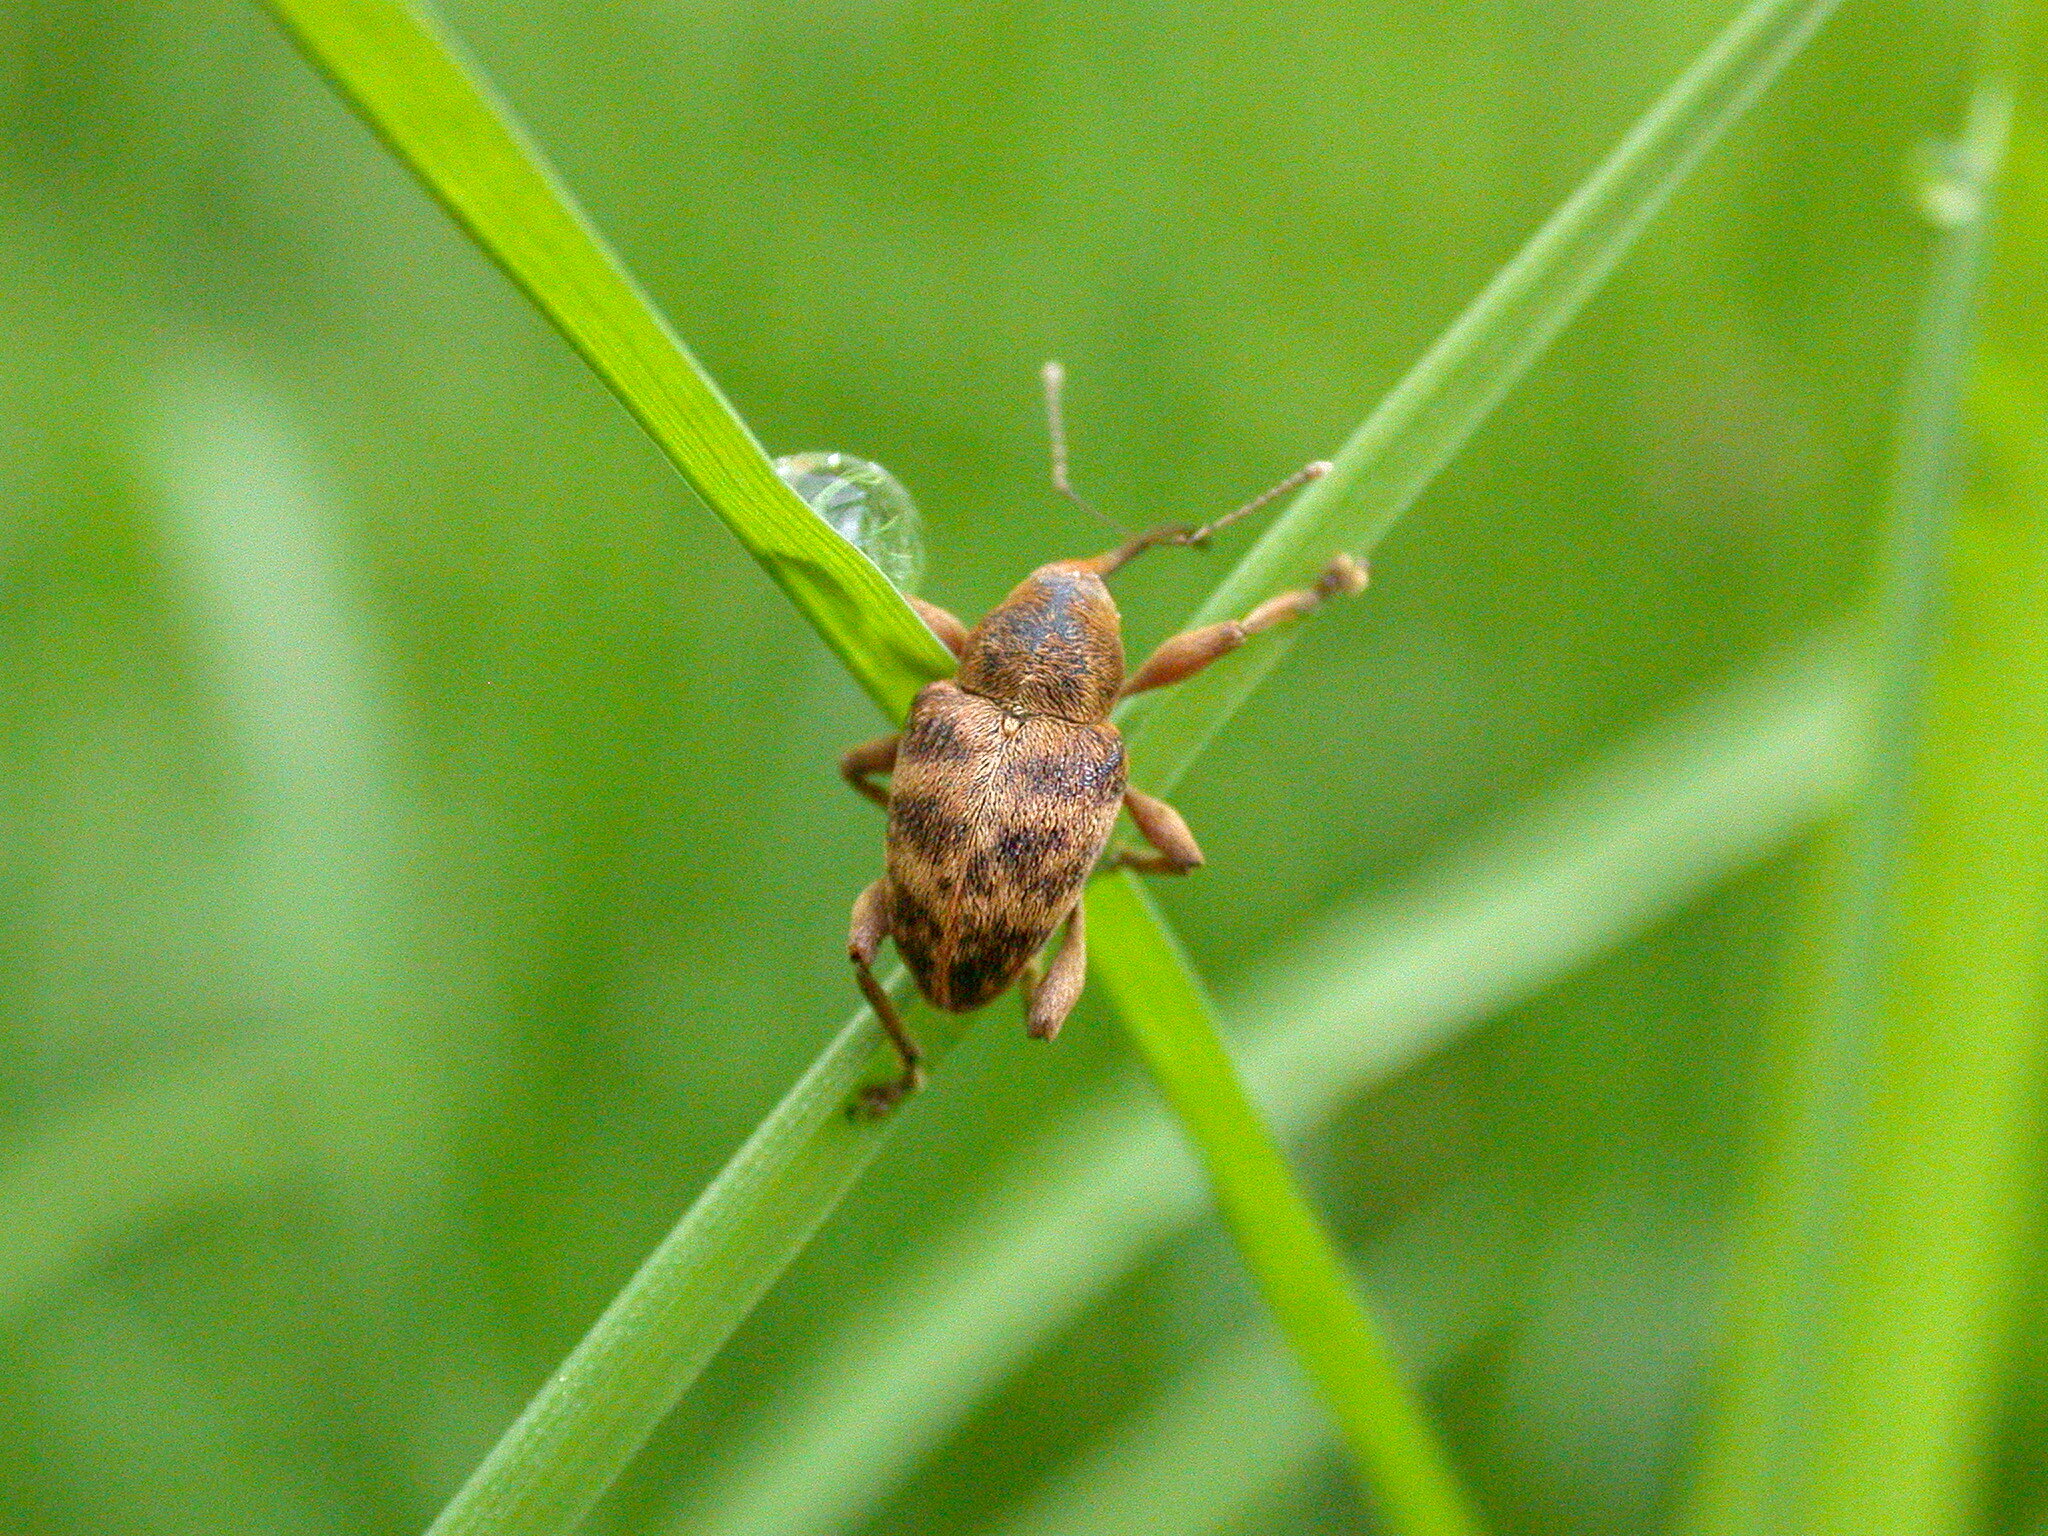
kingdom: Animalia
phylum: Arthropoda
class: Insecta
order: Coleoptera
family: Curculionidae
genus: Curculio
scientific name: Curculio venosus
